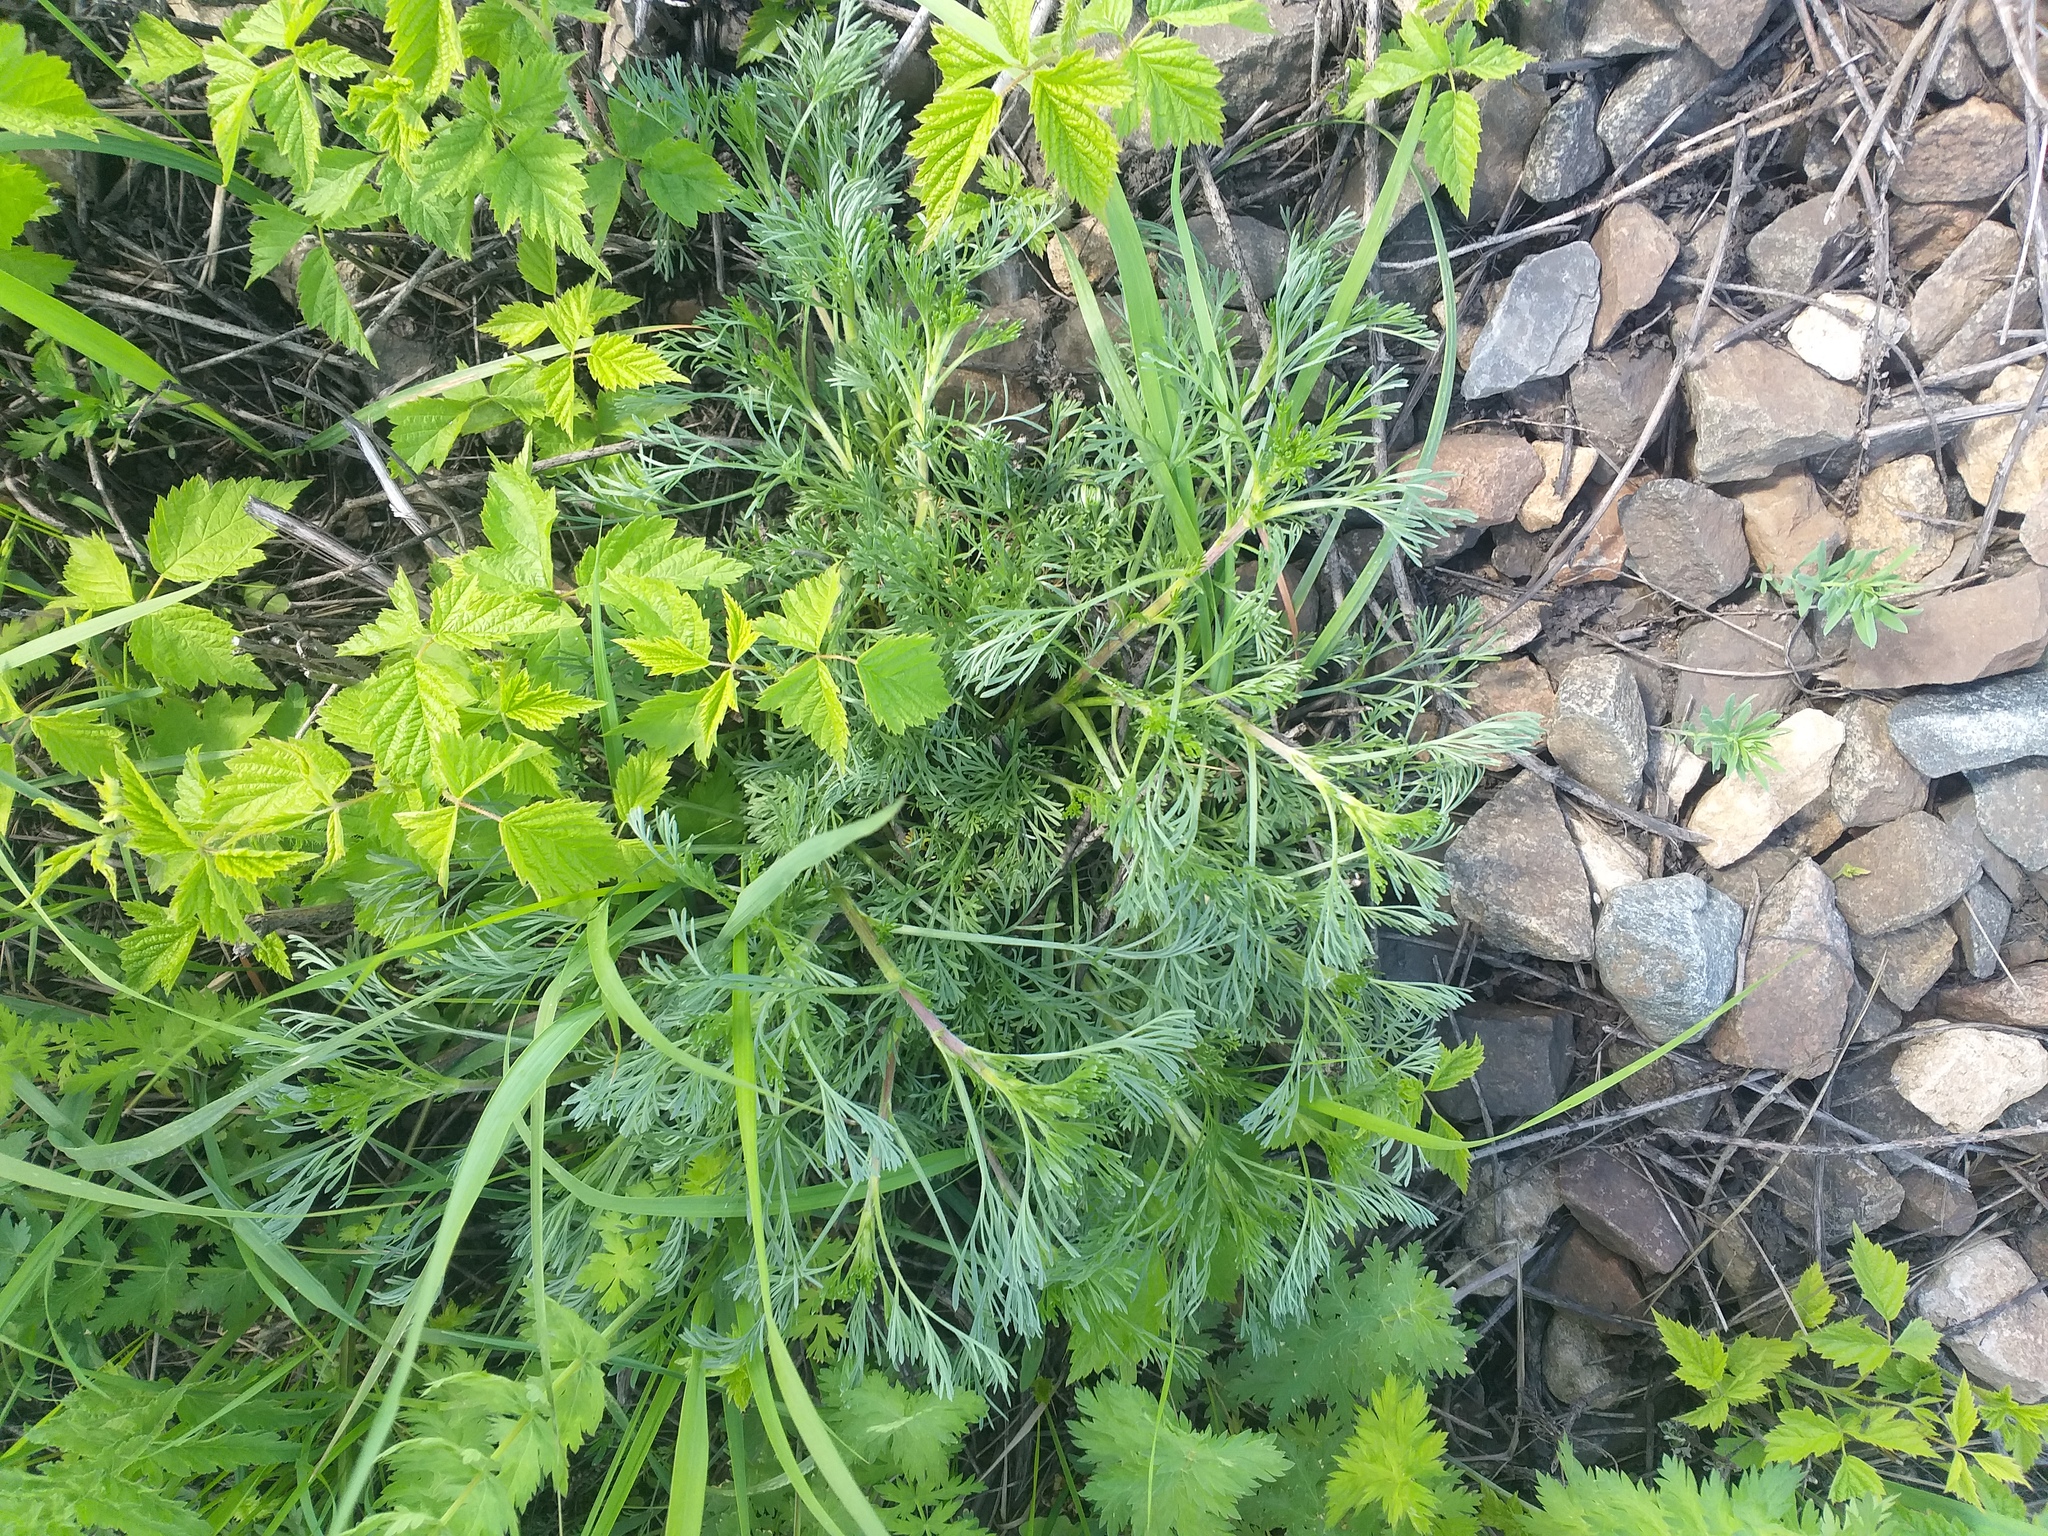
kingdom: Plantae
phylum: Tracheophyta
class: Magnoliopsida
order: Asterales
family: Asteraceae
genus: Artemisia
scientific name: Artemisia campestris
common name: Field wormwood
